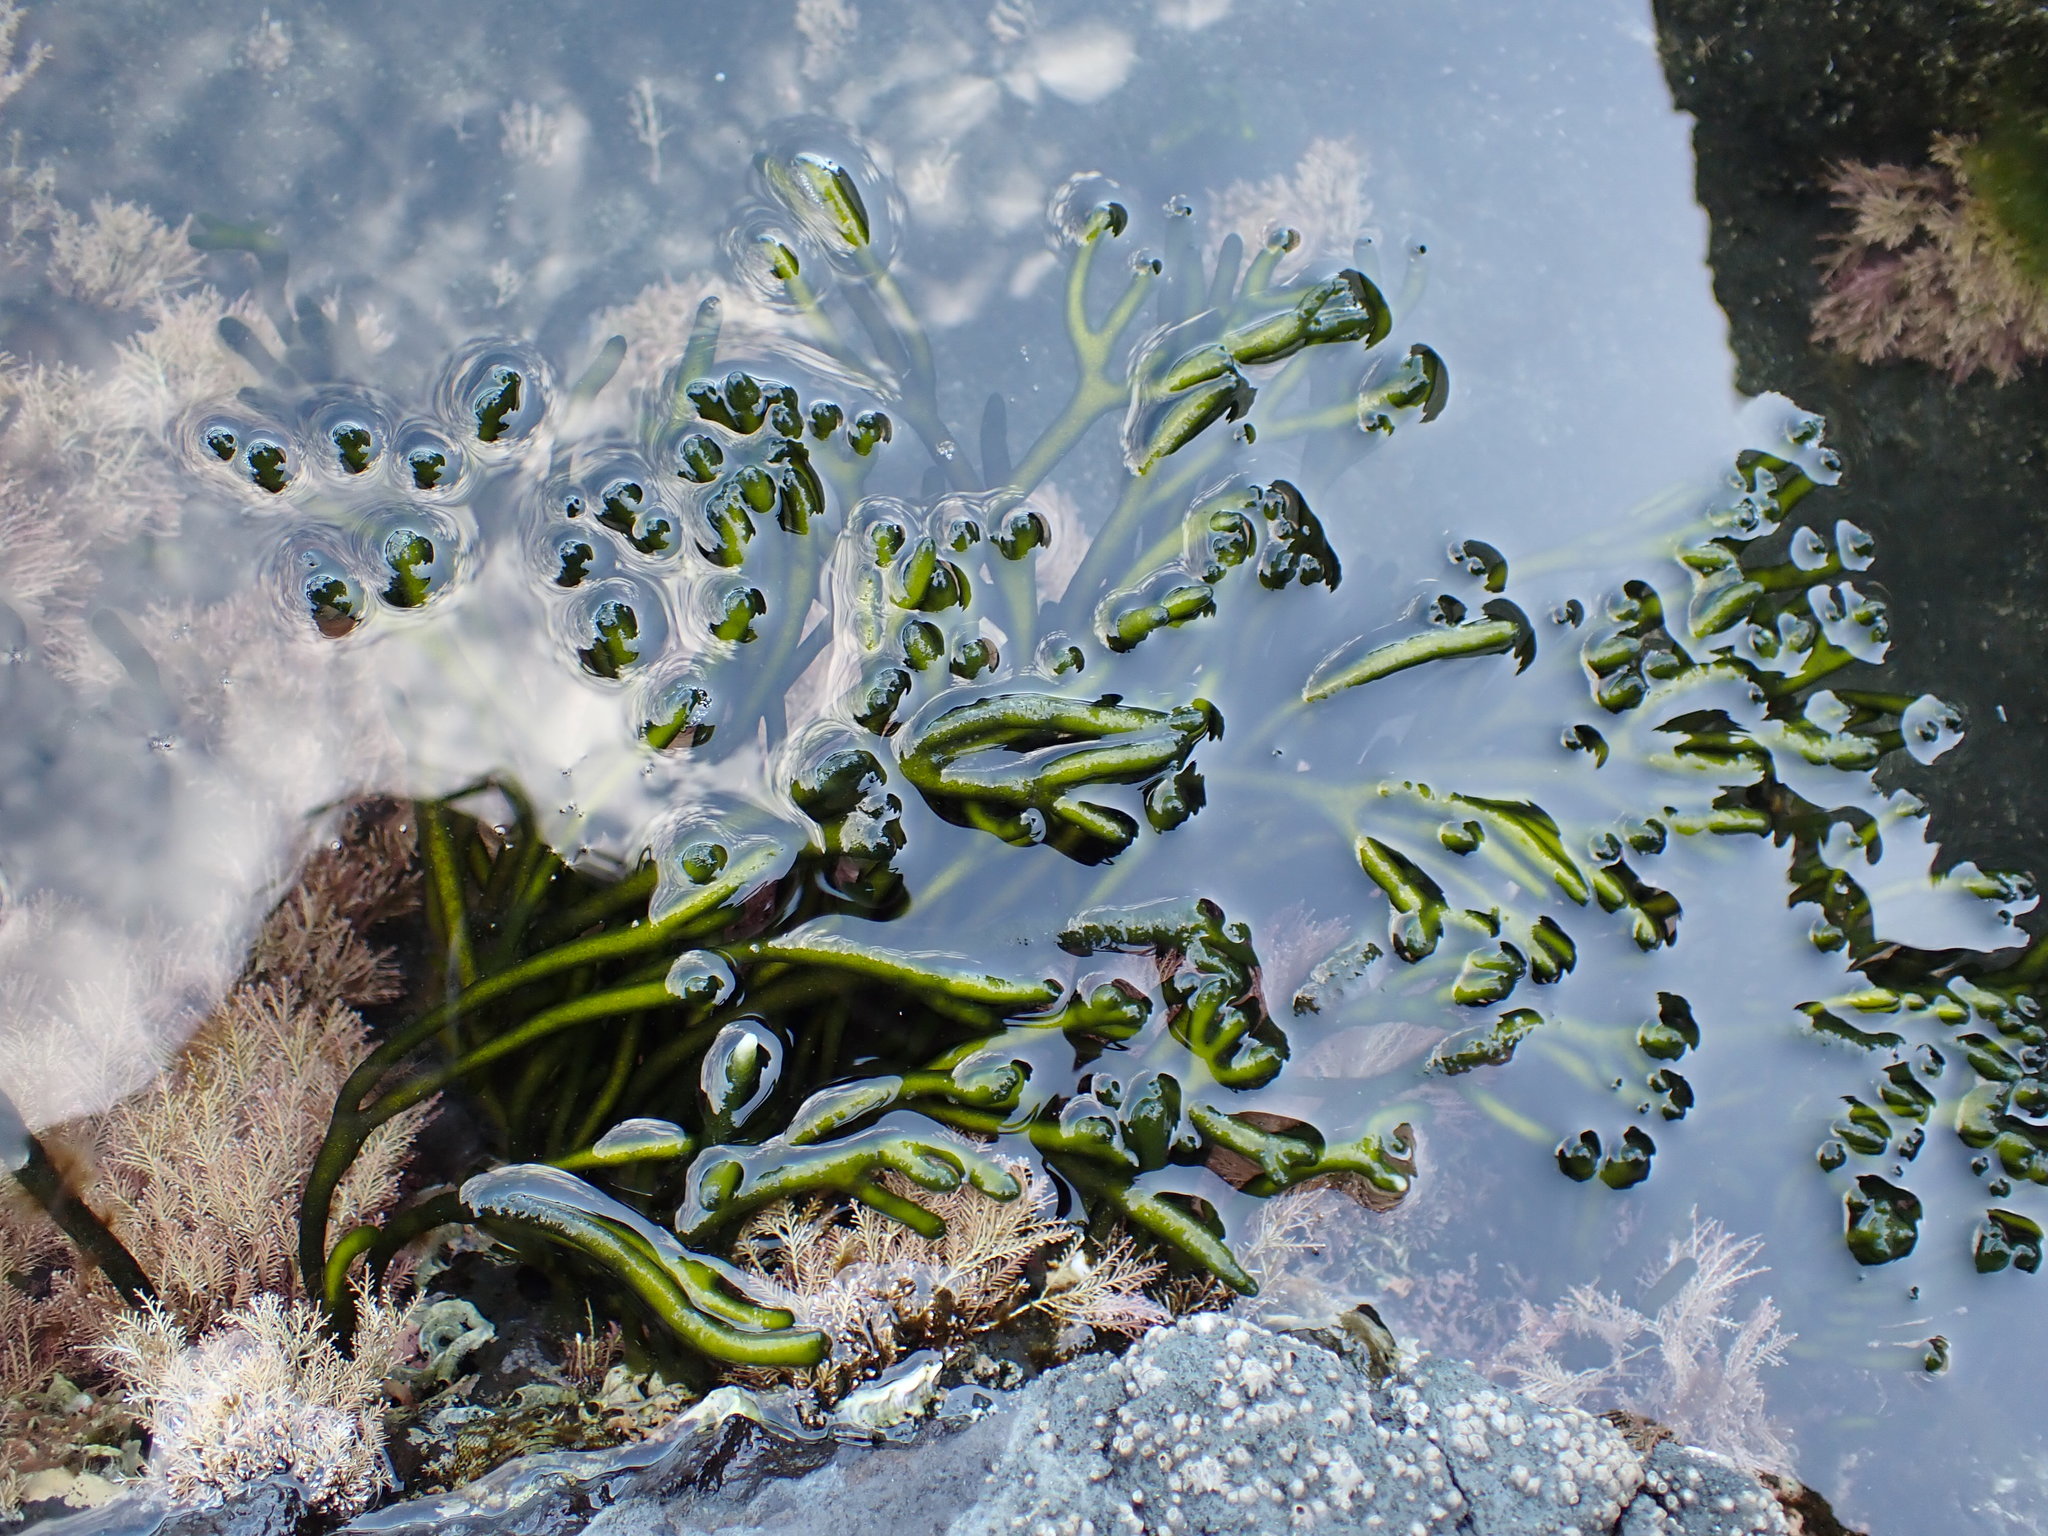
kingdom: Plantae
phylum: Chlorophyta
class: Ulvophyceae
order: Bryopsidales
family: Codiaceae
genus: Codium
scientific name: Codium fragile
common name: Dead man's fingers
